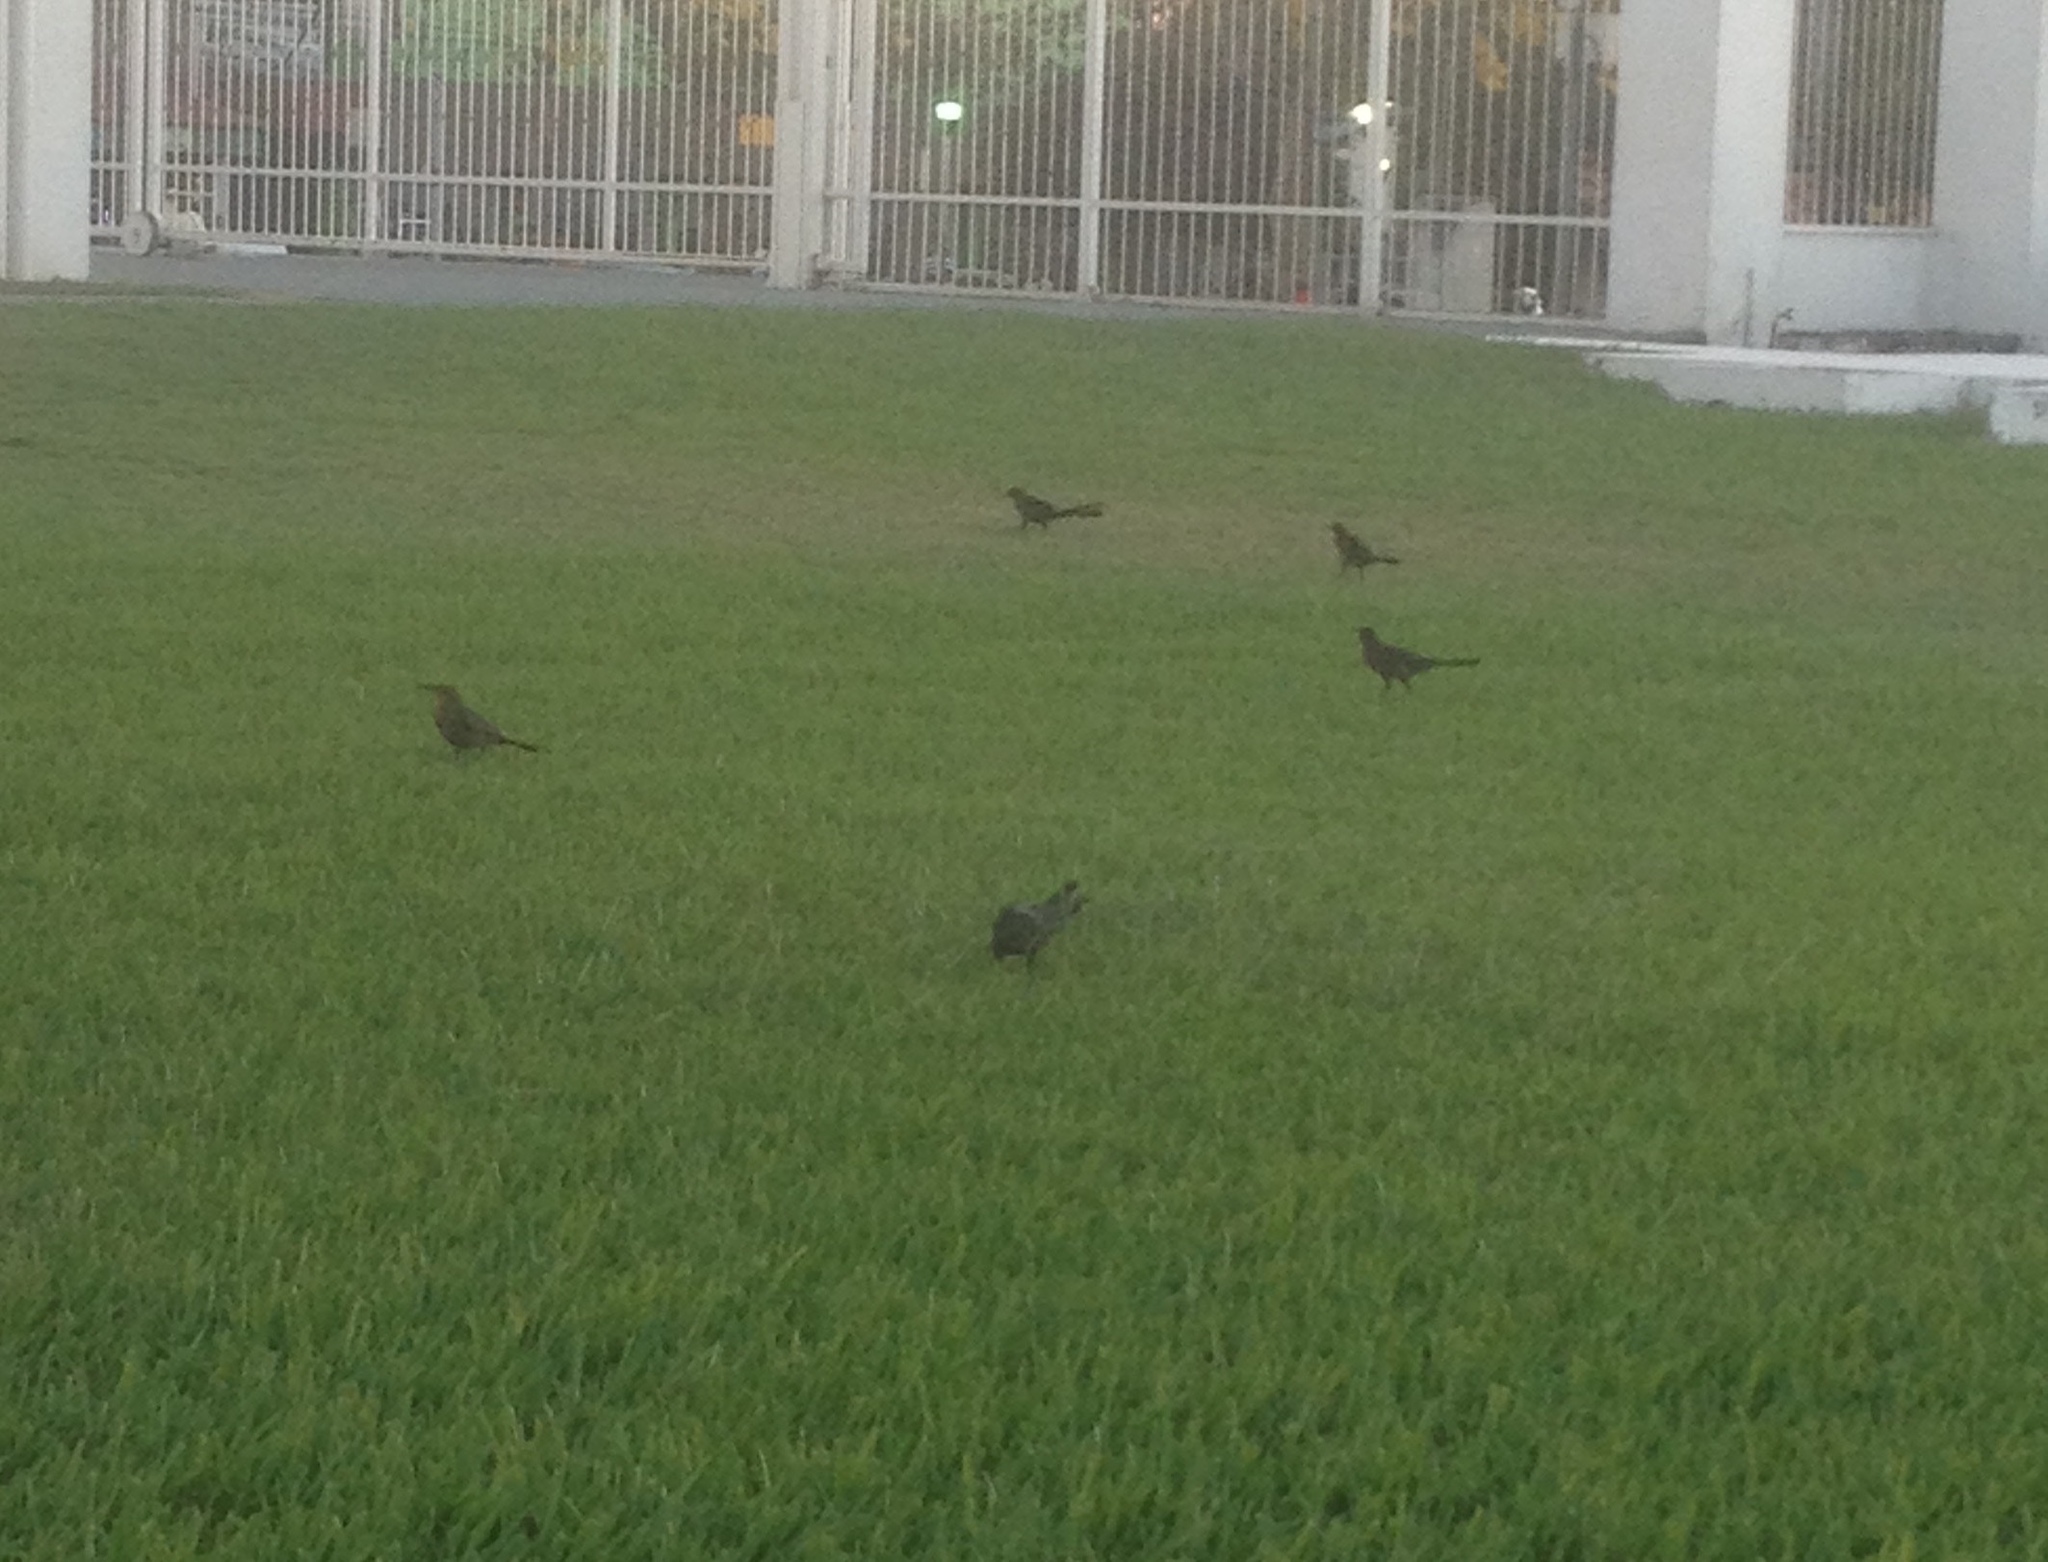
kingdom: Animalia
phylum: Chordata
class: Aves
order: Passeriformes
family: Icteridae
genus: Quiscalus
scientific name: Quiscalus mexicanus
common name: Great-tailed grackle
